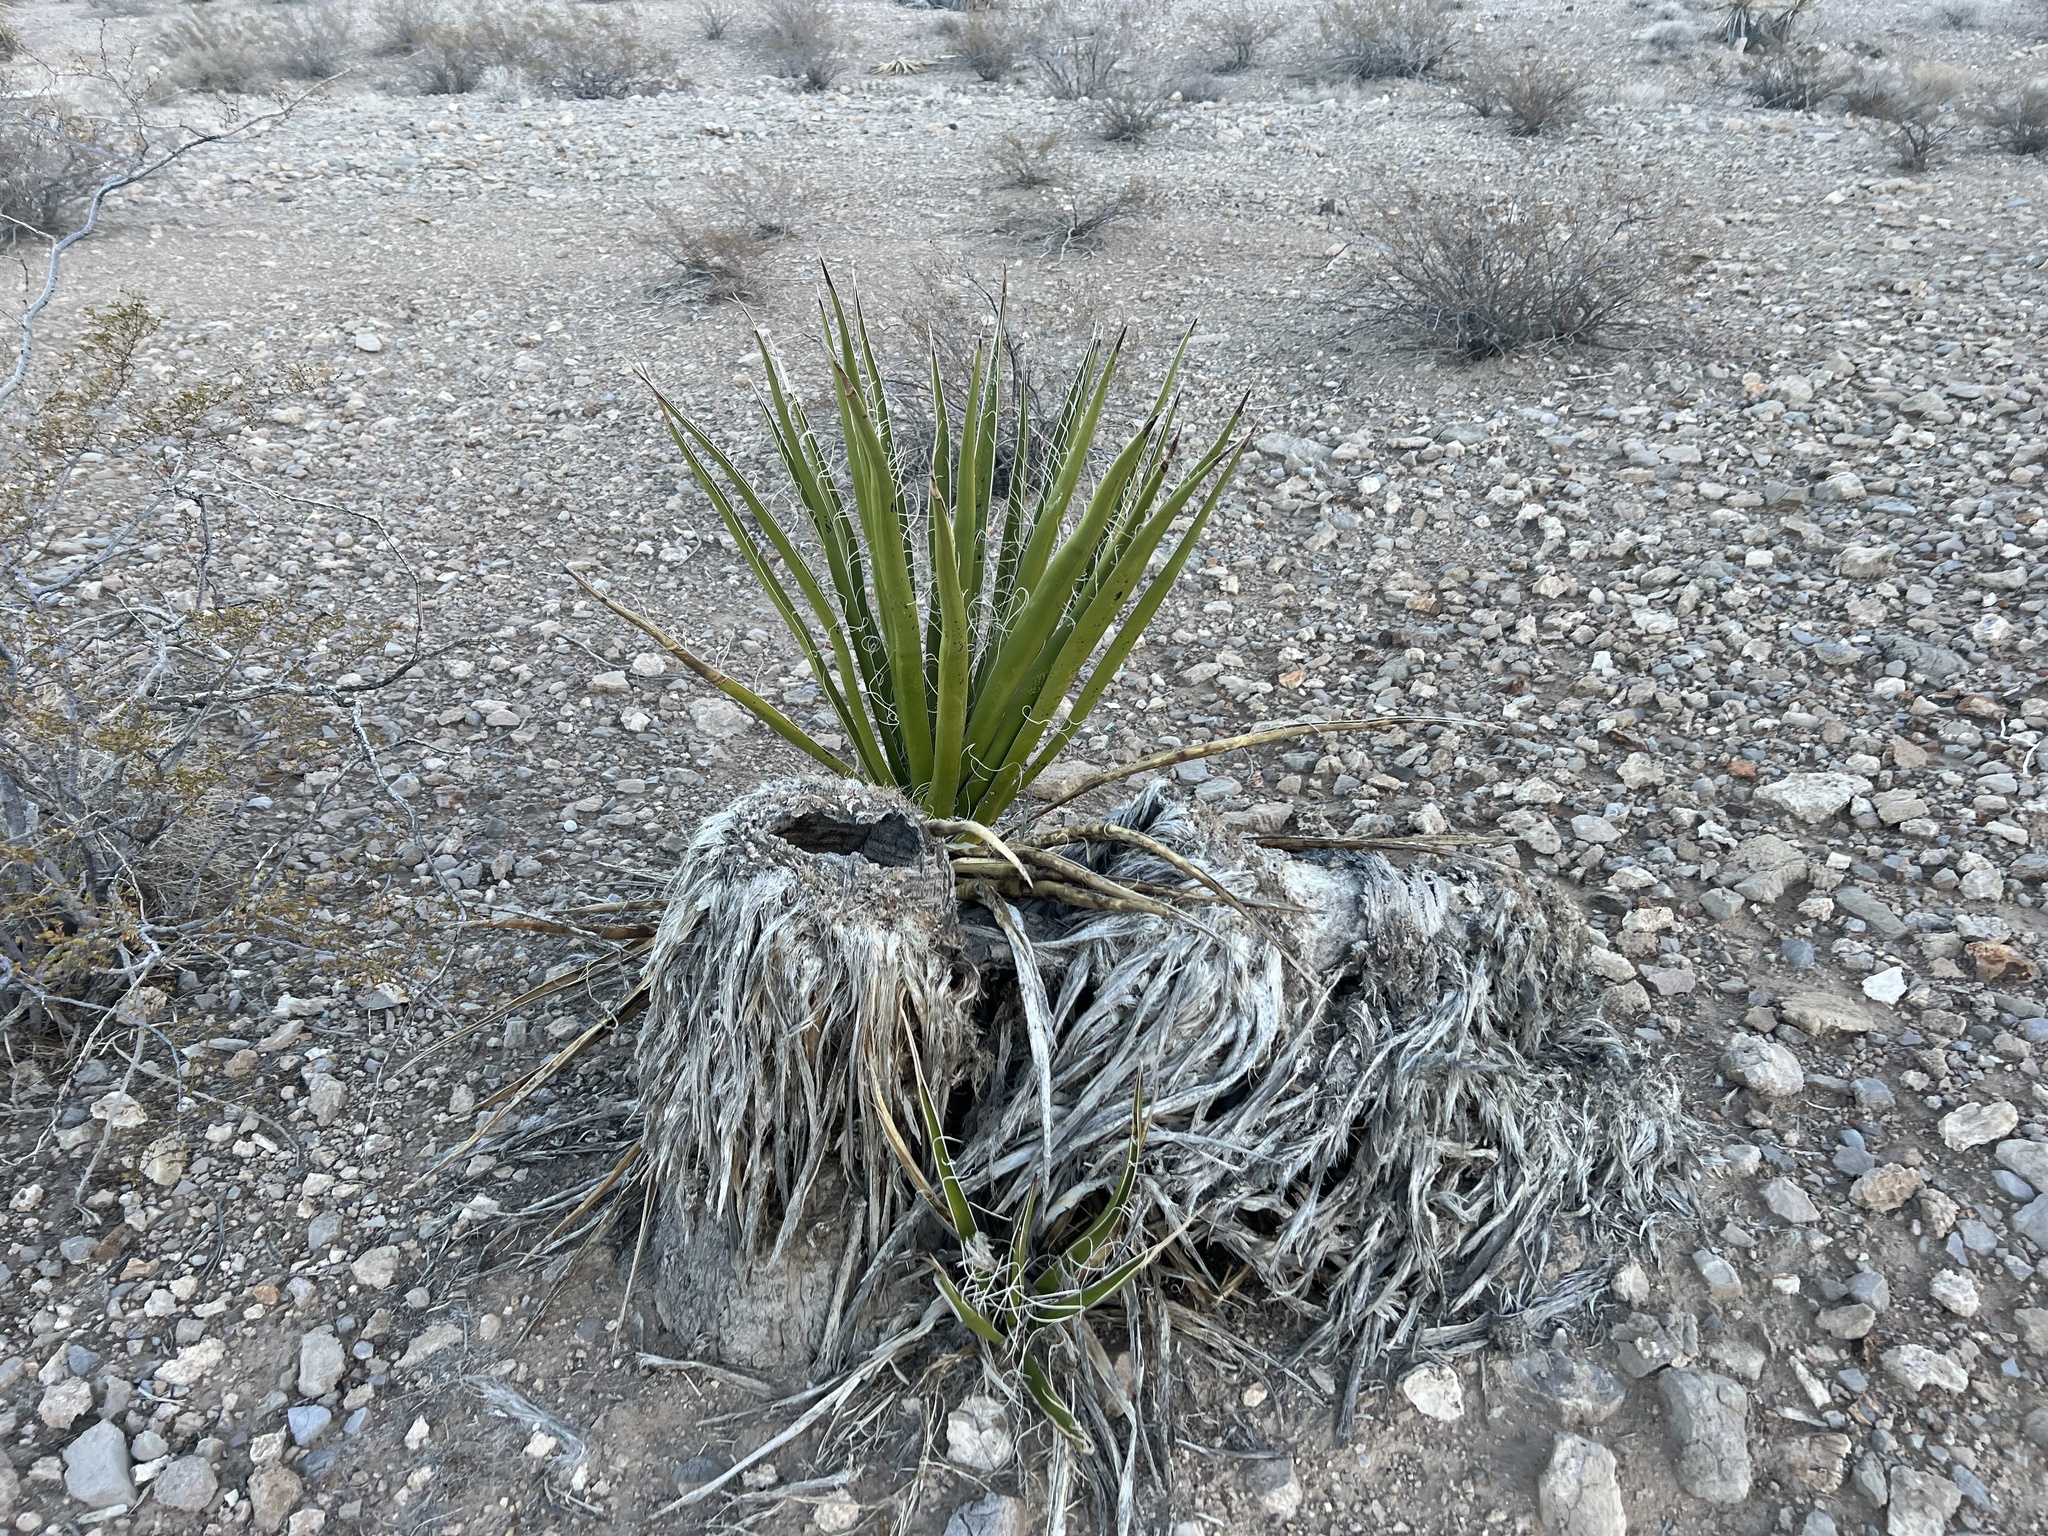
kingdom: Plantae
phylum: Tracheophyta
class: Liliopsida
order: Asparagales
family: Asparagaceae
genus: Yucca
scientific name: Yucca schidigera
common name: Mojave yucca
